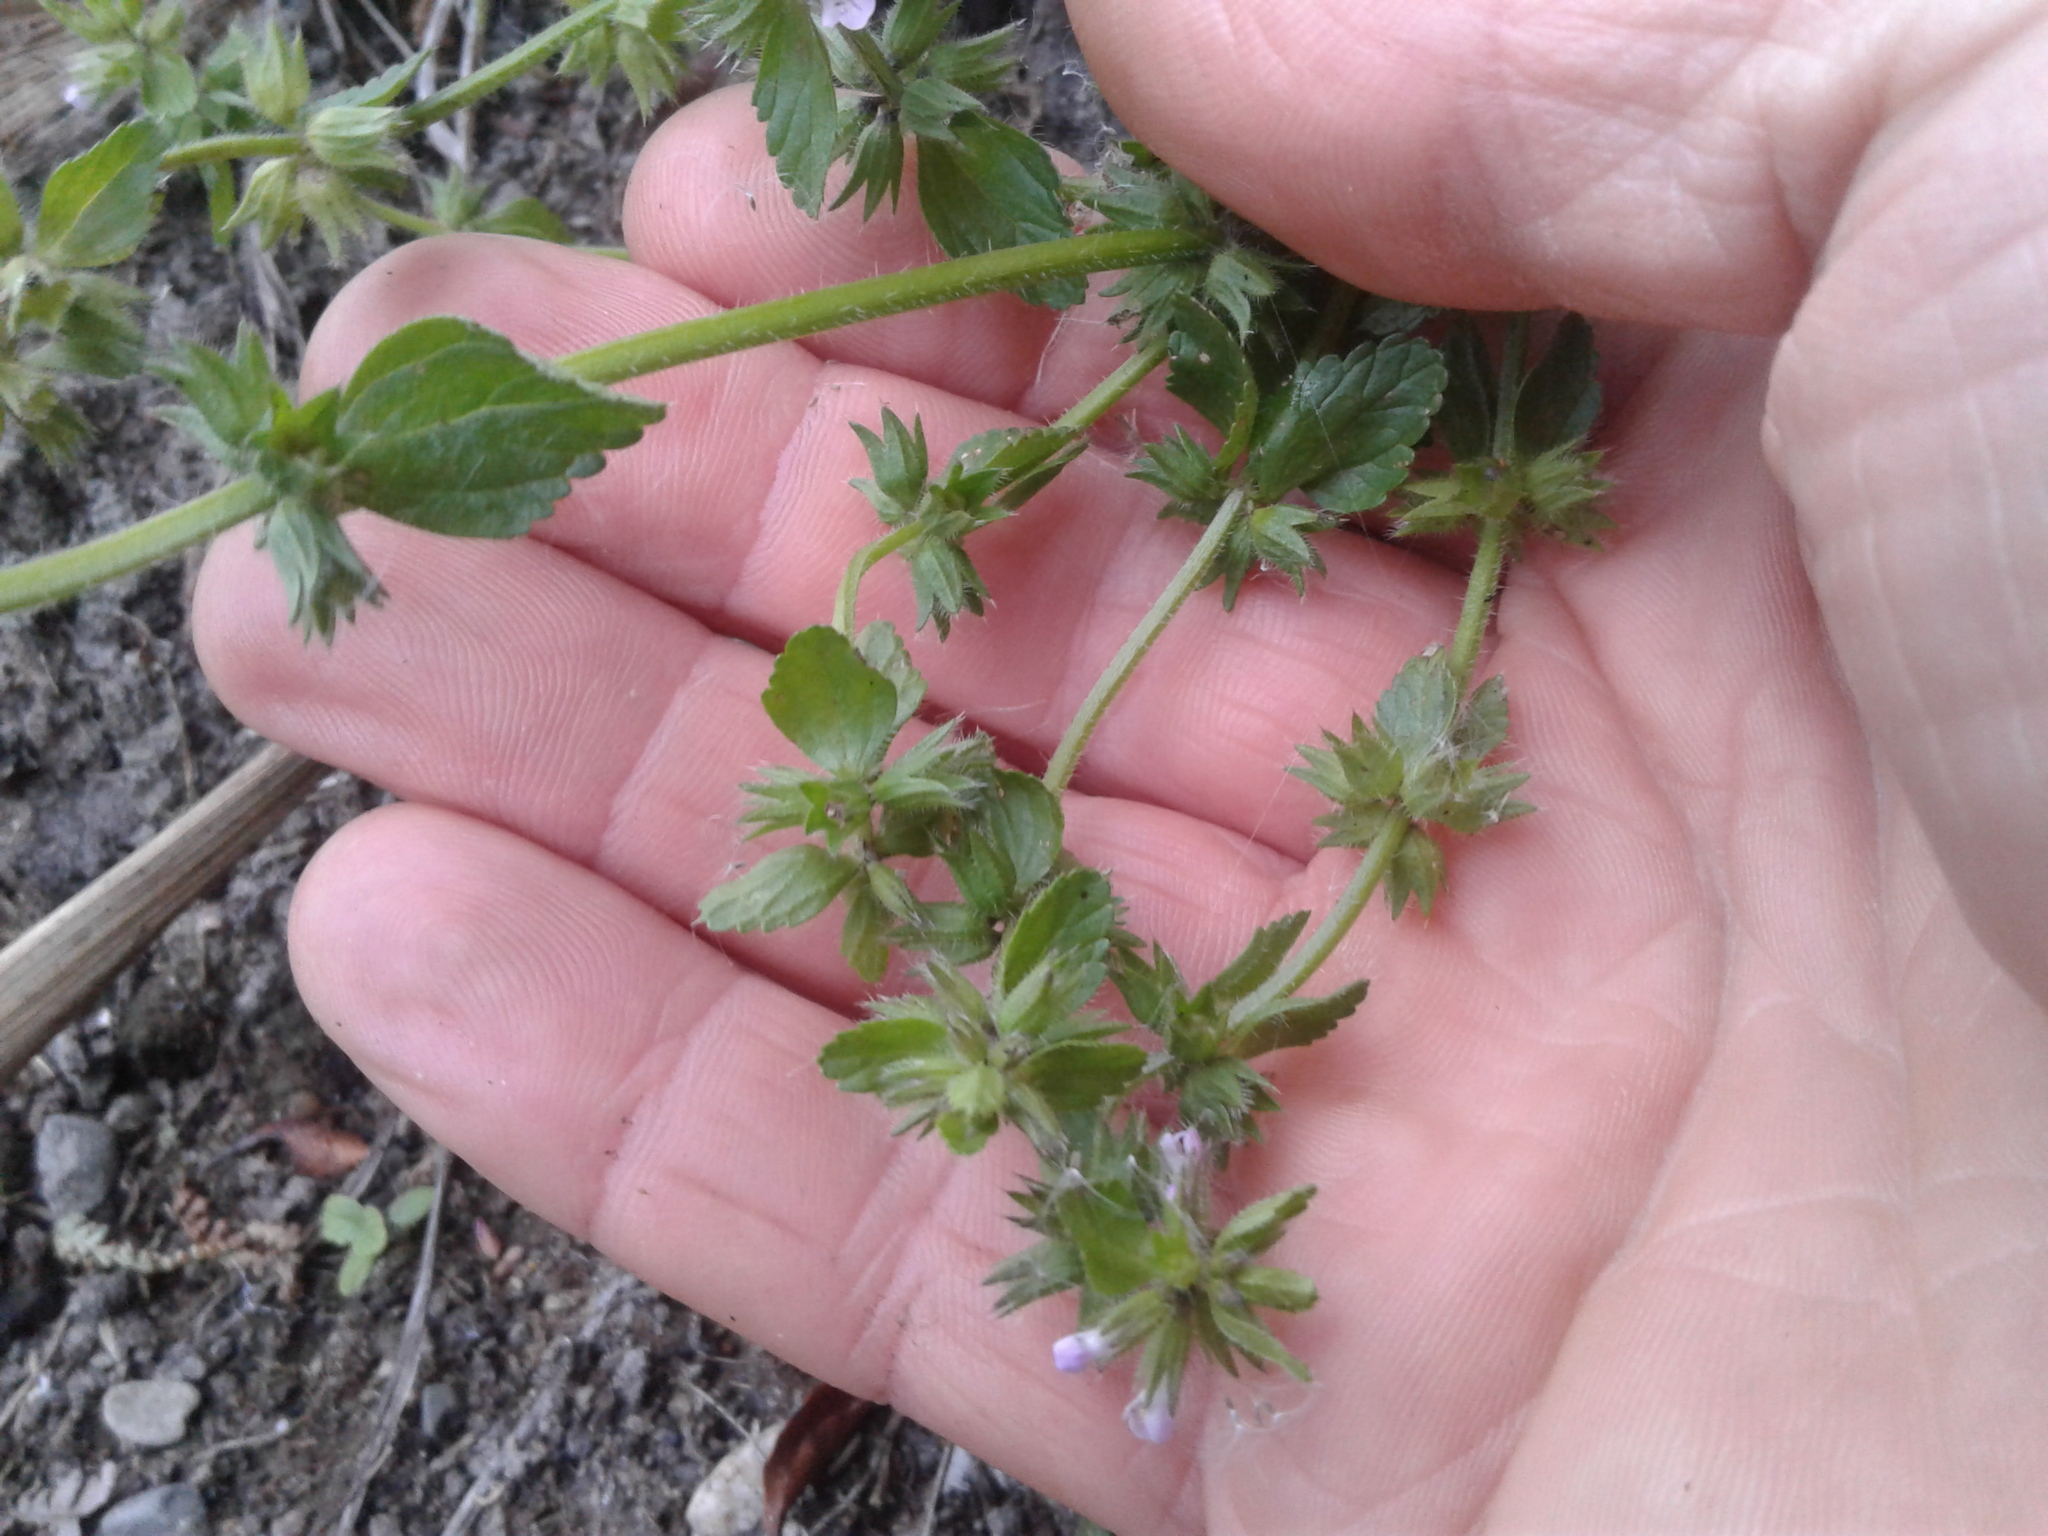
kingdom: Plantae
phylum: Tracheophyta
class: Magnoliopsida
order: Lamiales
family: Lamiaceae
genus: Stachys
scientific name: Stachys arvensis
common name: Field woundwort
